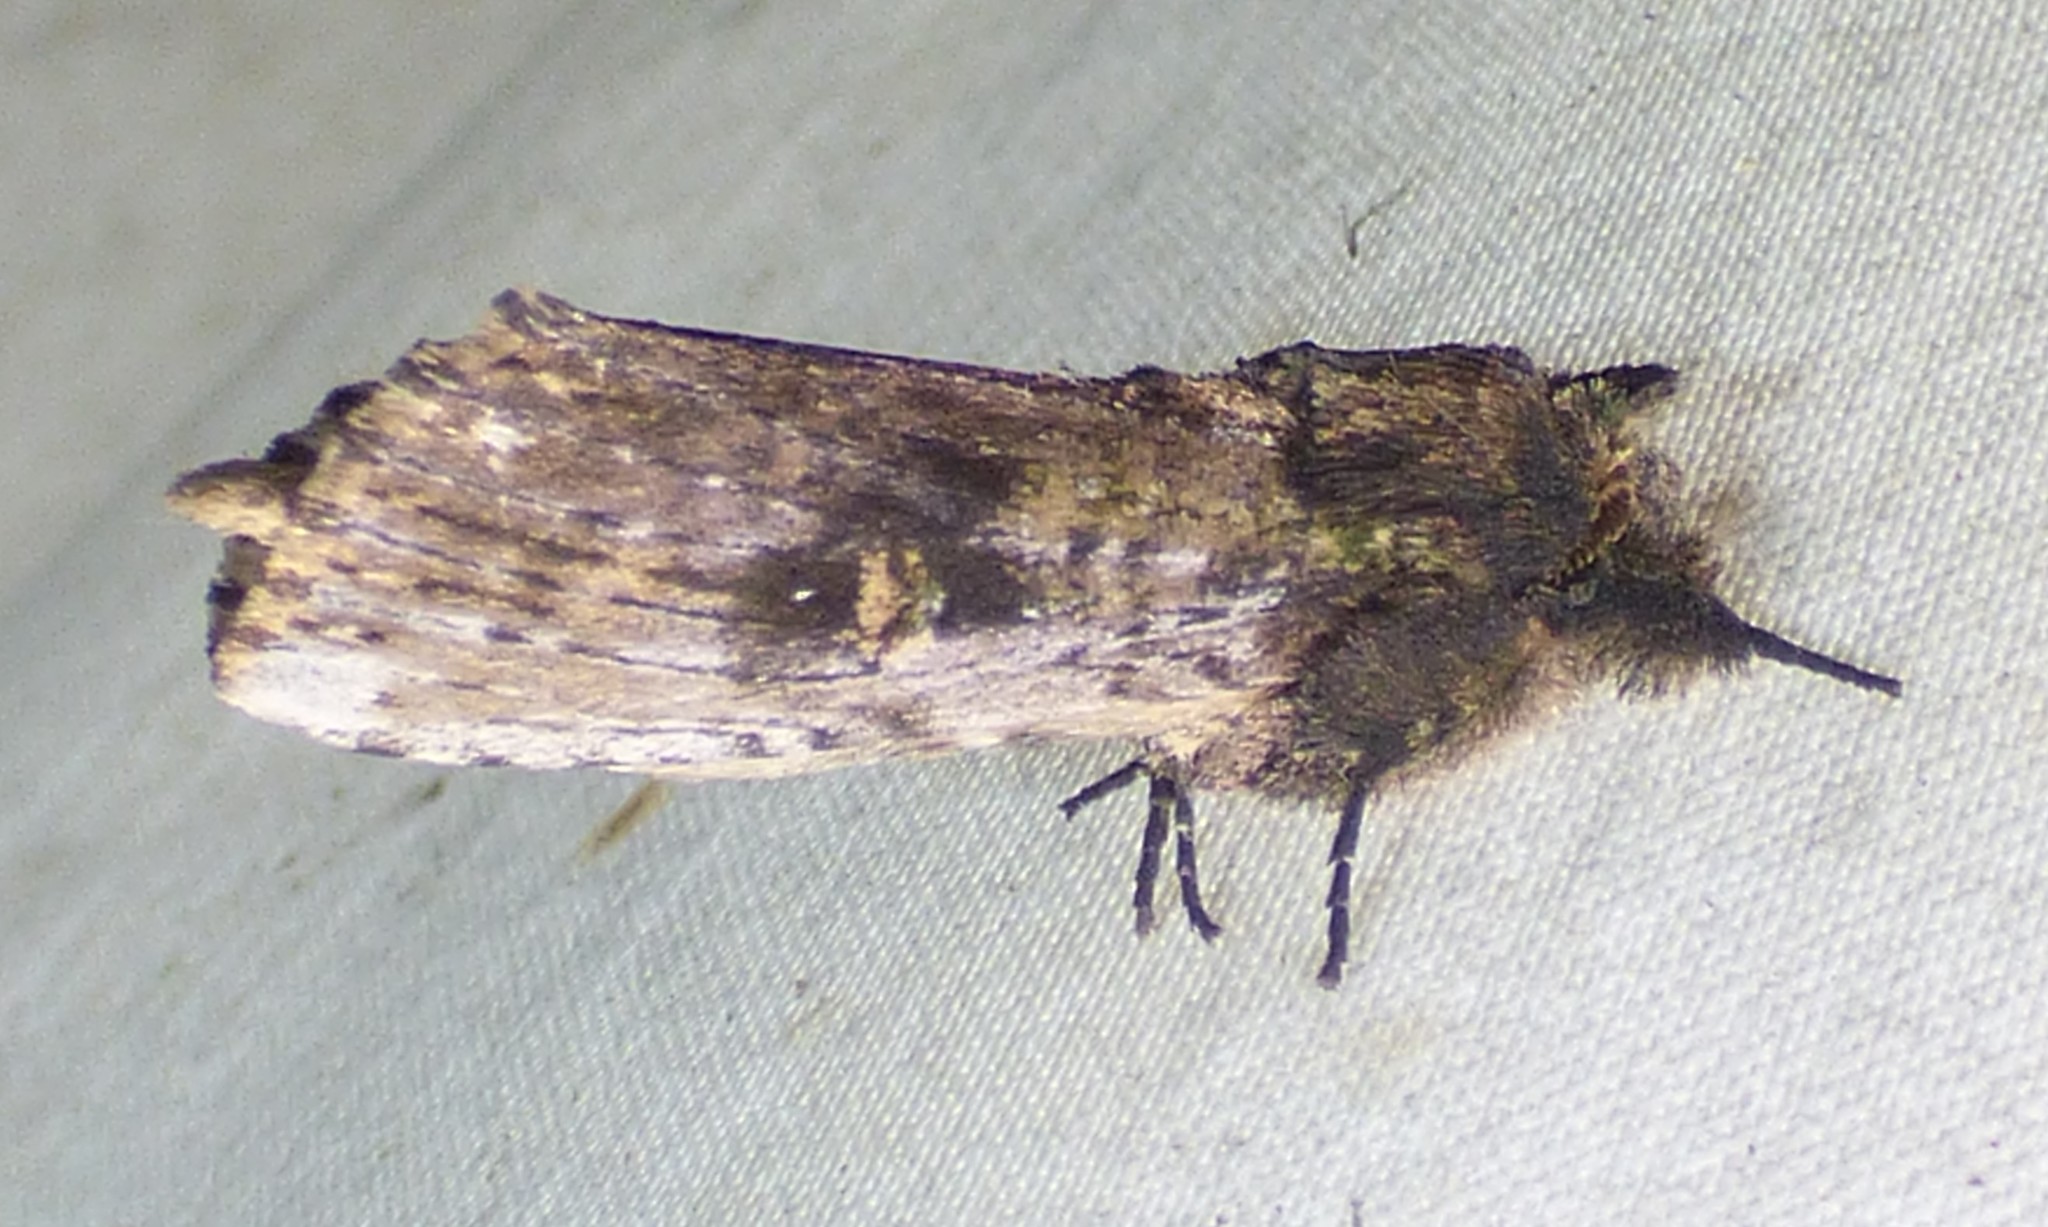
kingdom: Animalia
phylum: Arthropoda
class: Insecta
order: Lepidoptera
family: Notodontidae
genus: Schizura
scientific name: Schizura ipomaeae
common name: Morning-glory prominent
